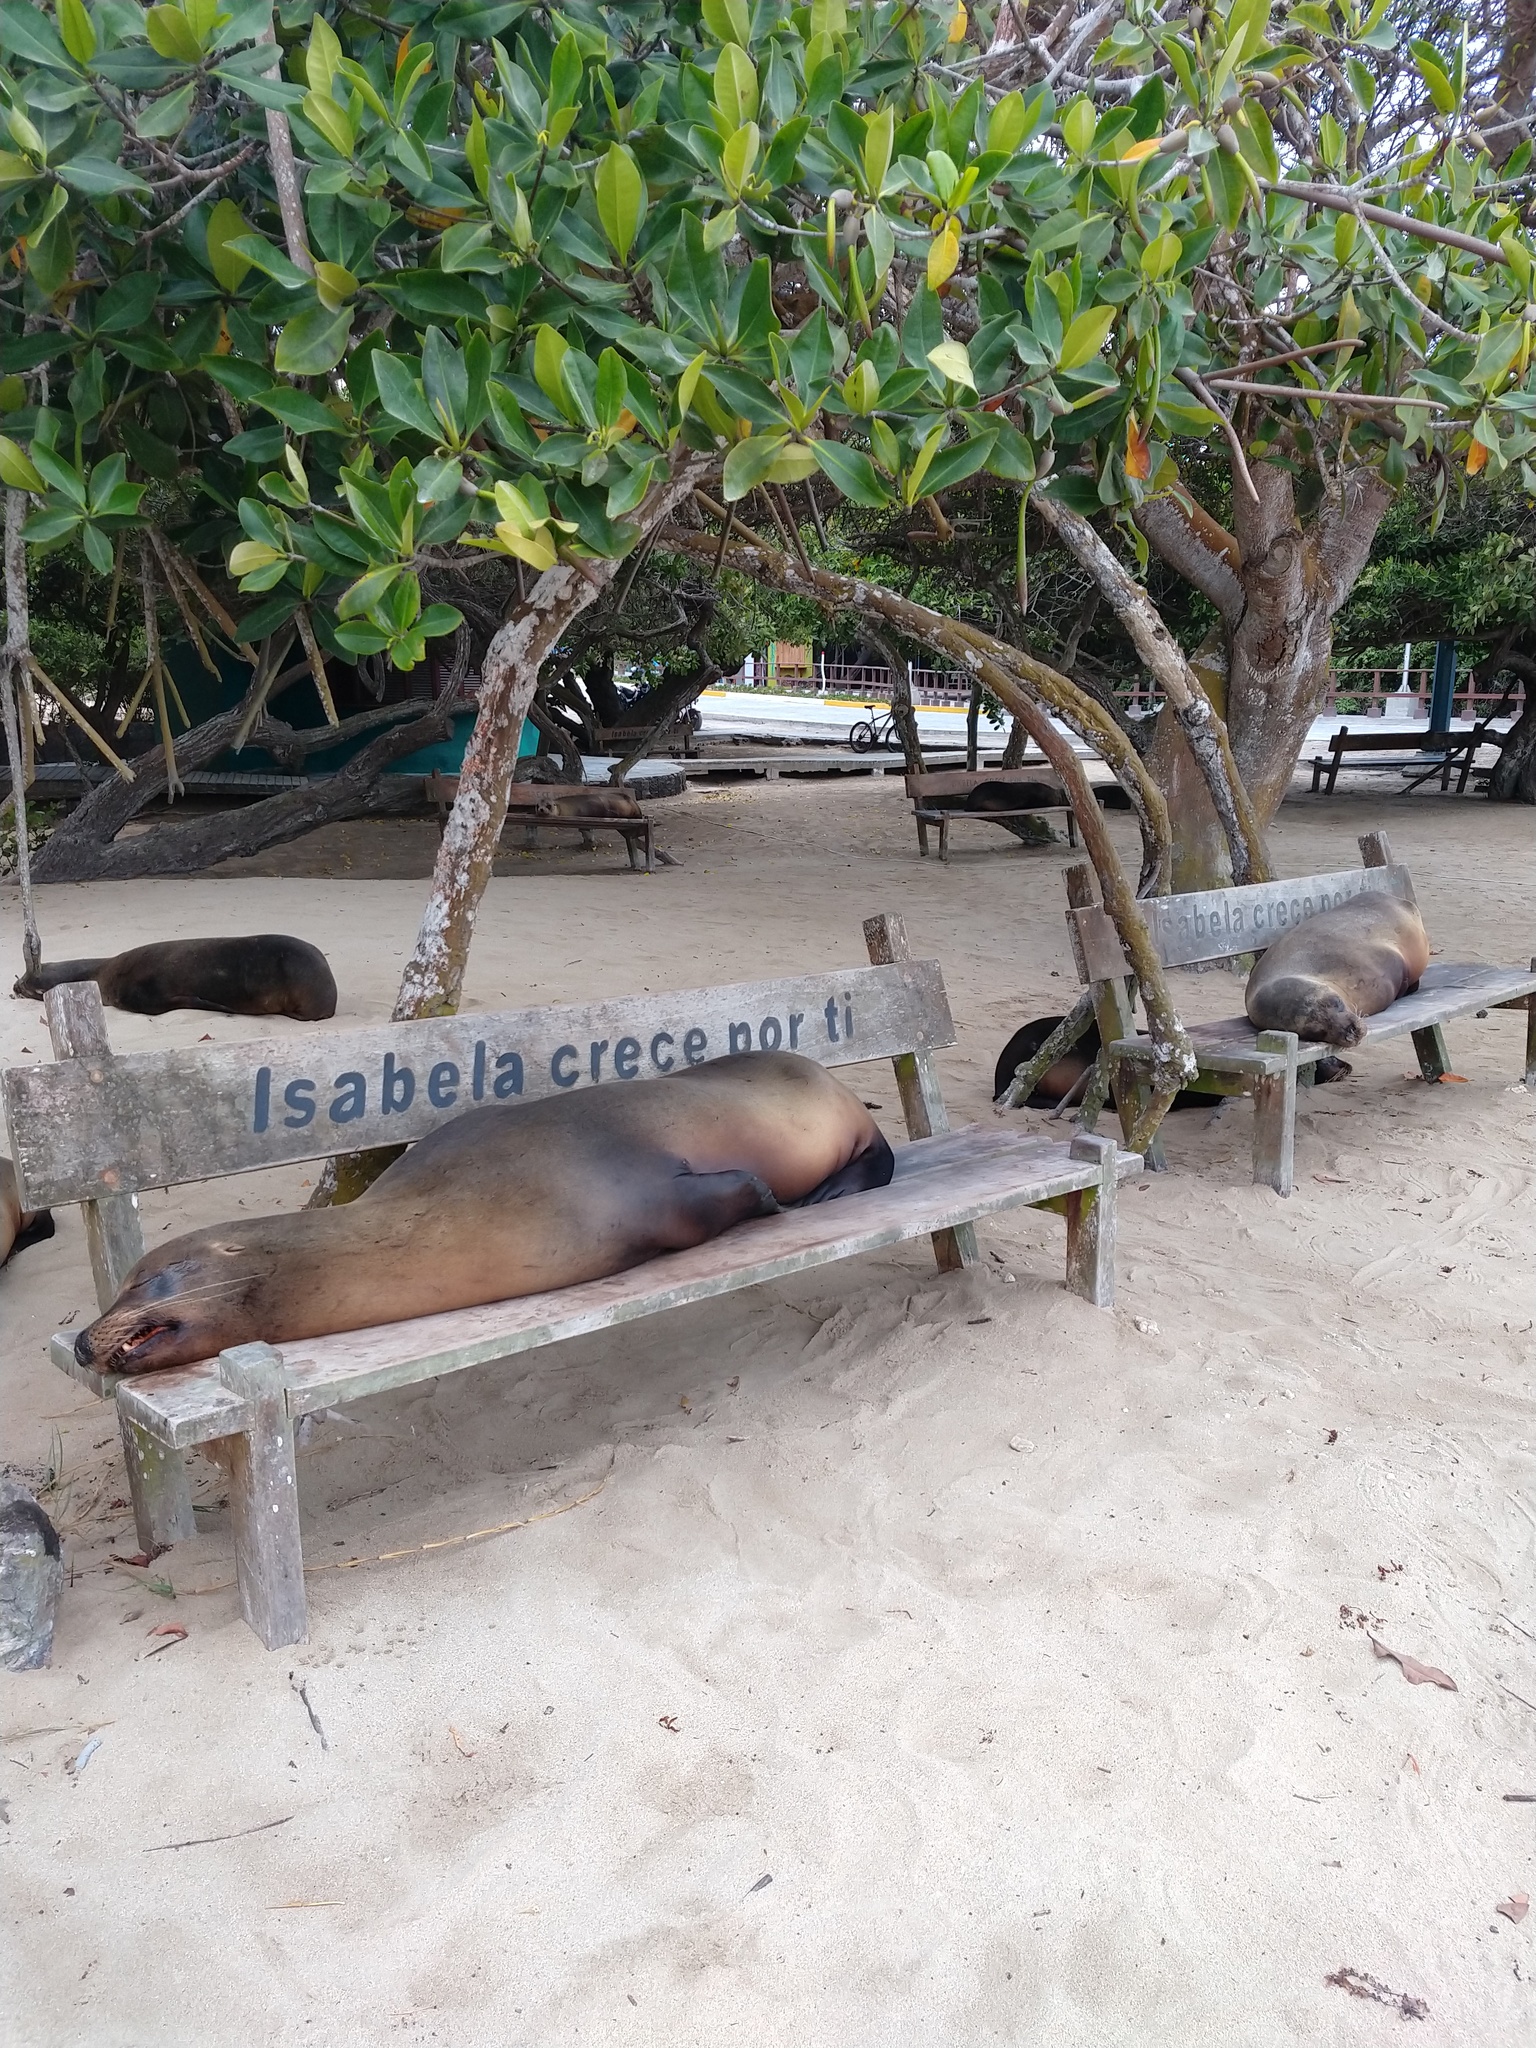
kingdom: Animalia
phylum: Chordata
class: Mammalia
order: Carnivora
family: Otariidae
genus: Zalophus
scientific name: Zalophus wollebaeki
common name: Galapagos sea lion
